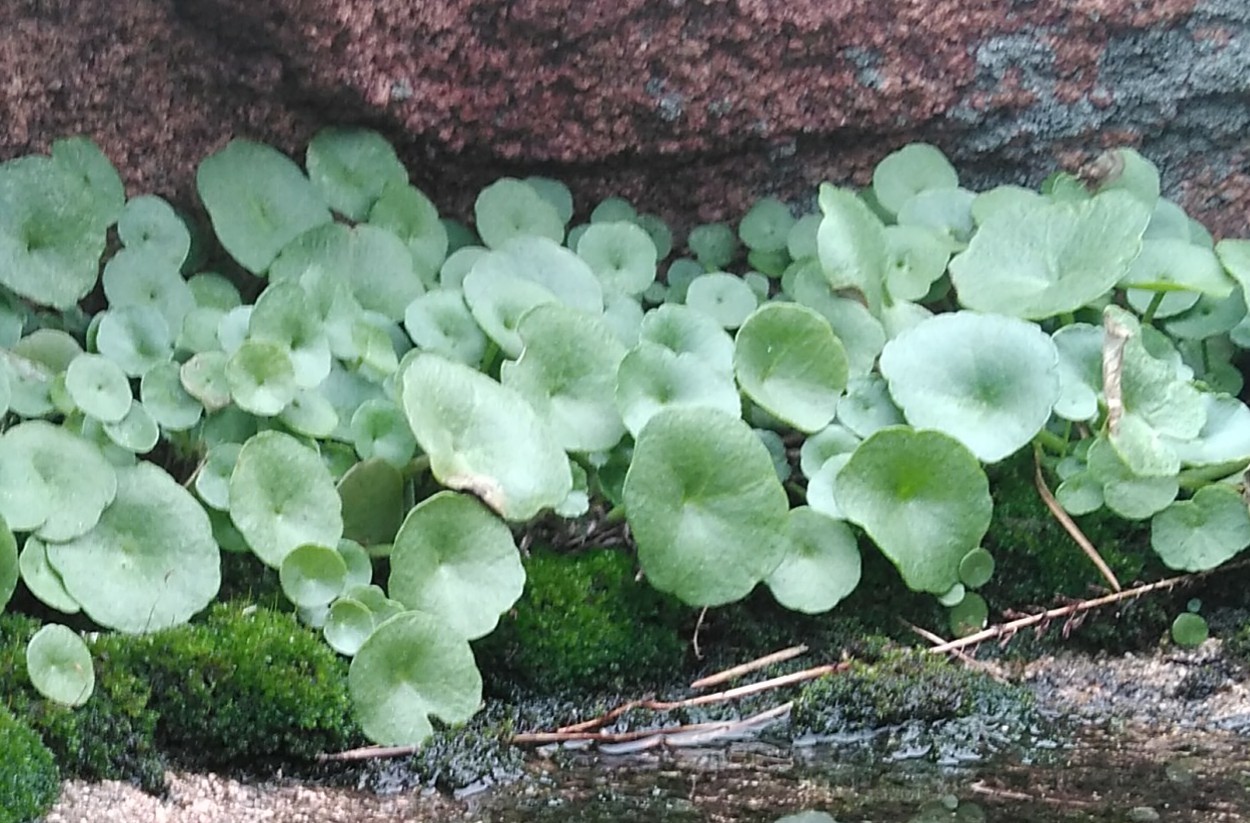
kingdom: Plantae
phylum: Tracheophyta
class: Magnoliopsida
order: Saxifragales
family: Crassulaceae
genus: Umbilicus
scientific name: Umbilicus rupestris
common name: Navelwort
